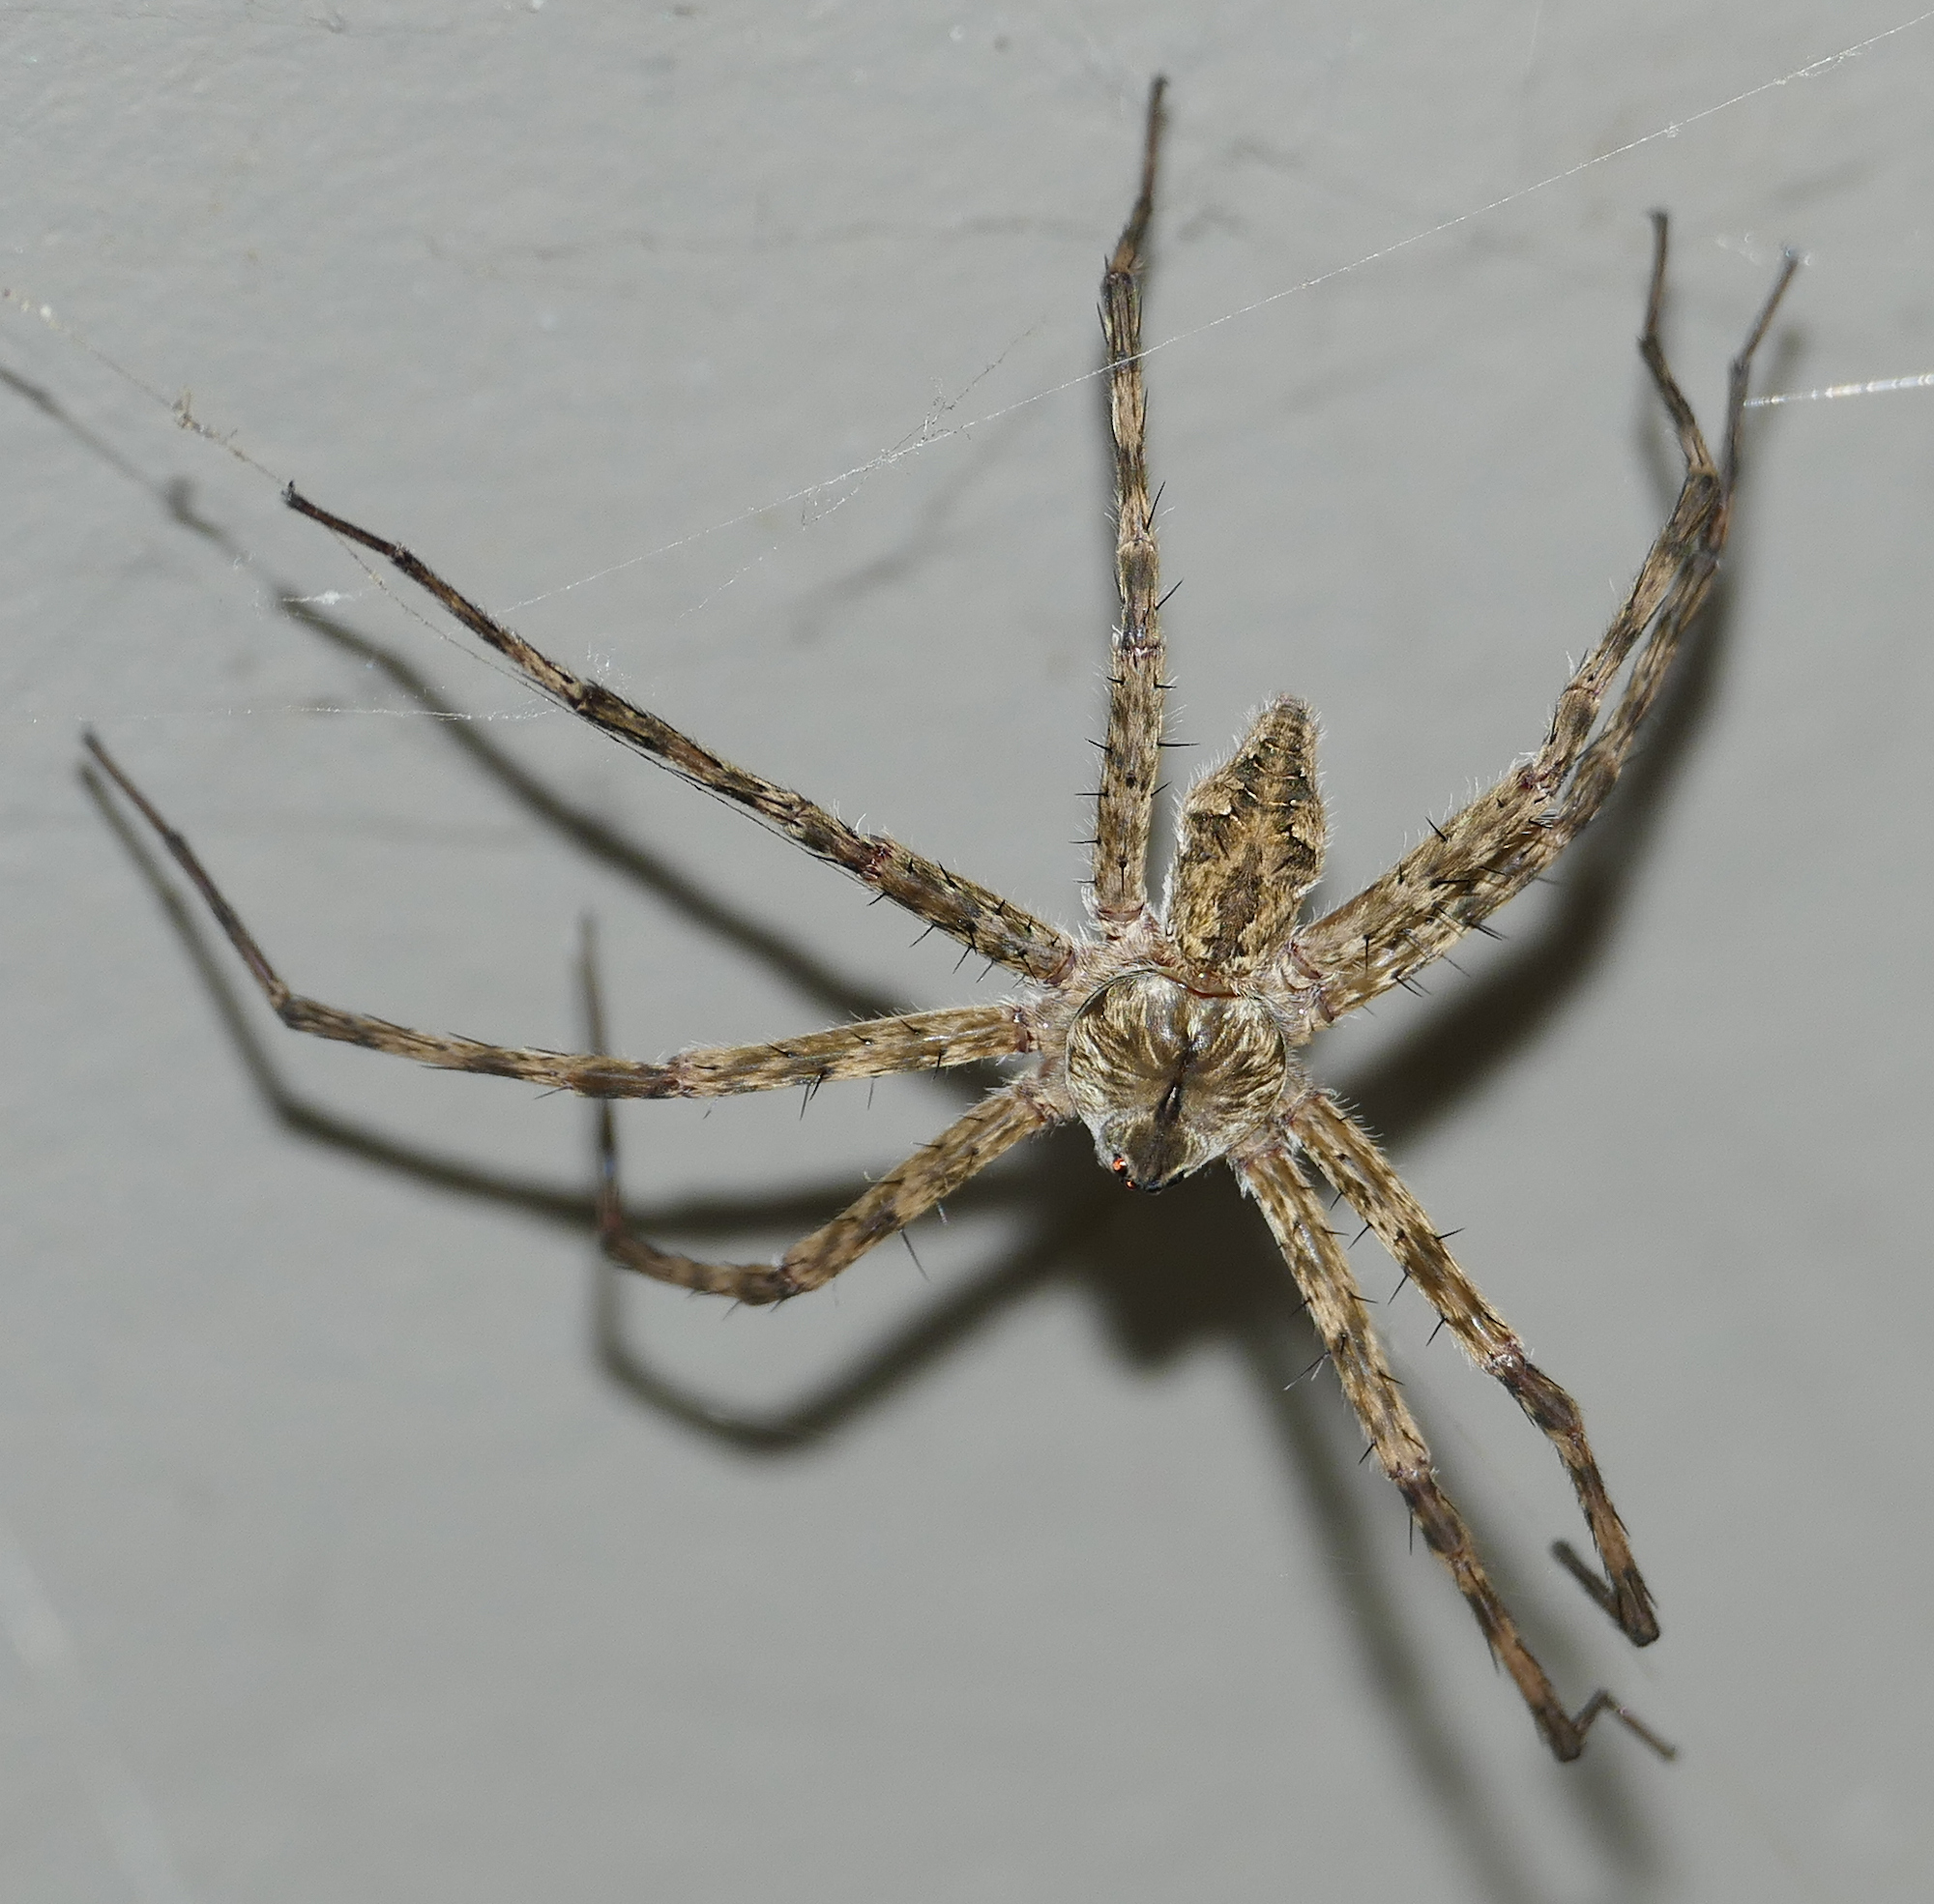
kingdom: Animalia
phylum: Arthropoda
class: Arachnida
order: Araneae
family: Pisauridae
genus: Dolomedes
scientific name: Dolomedes albineus
